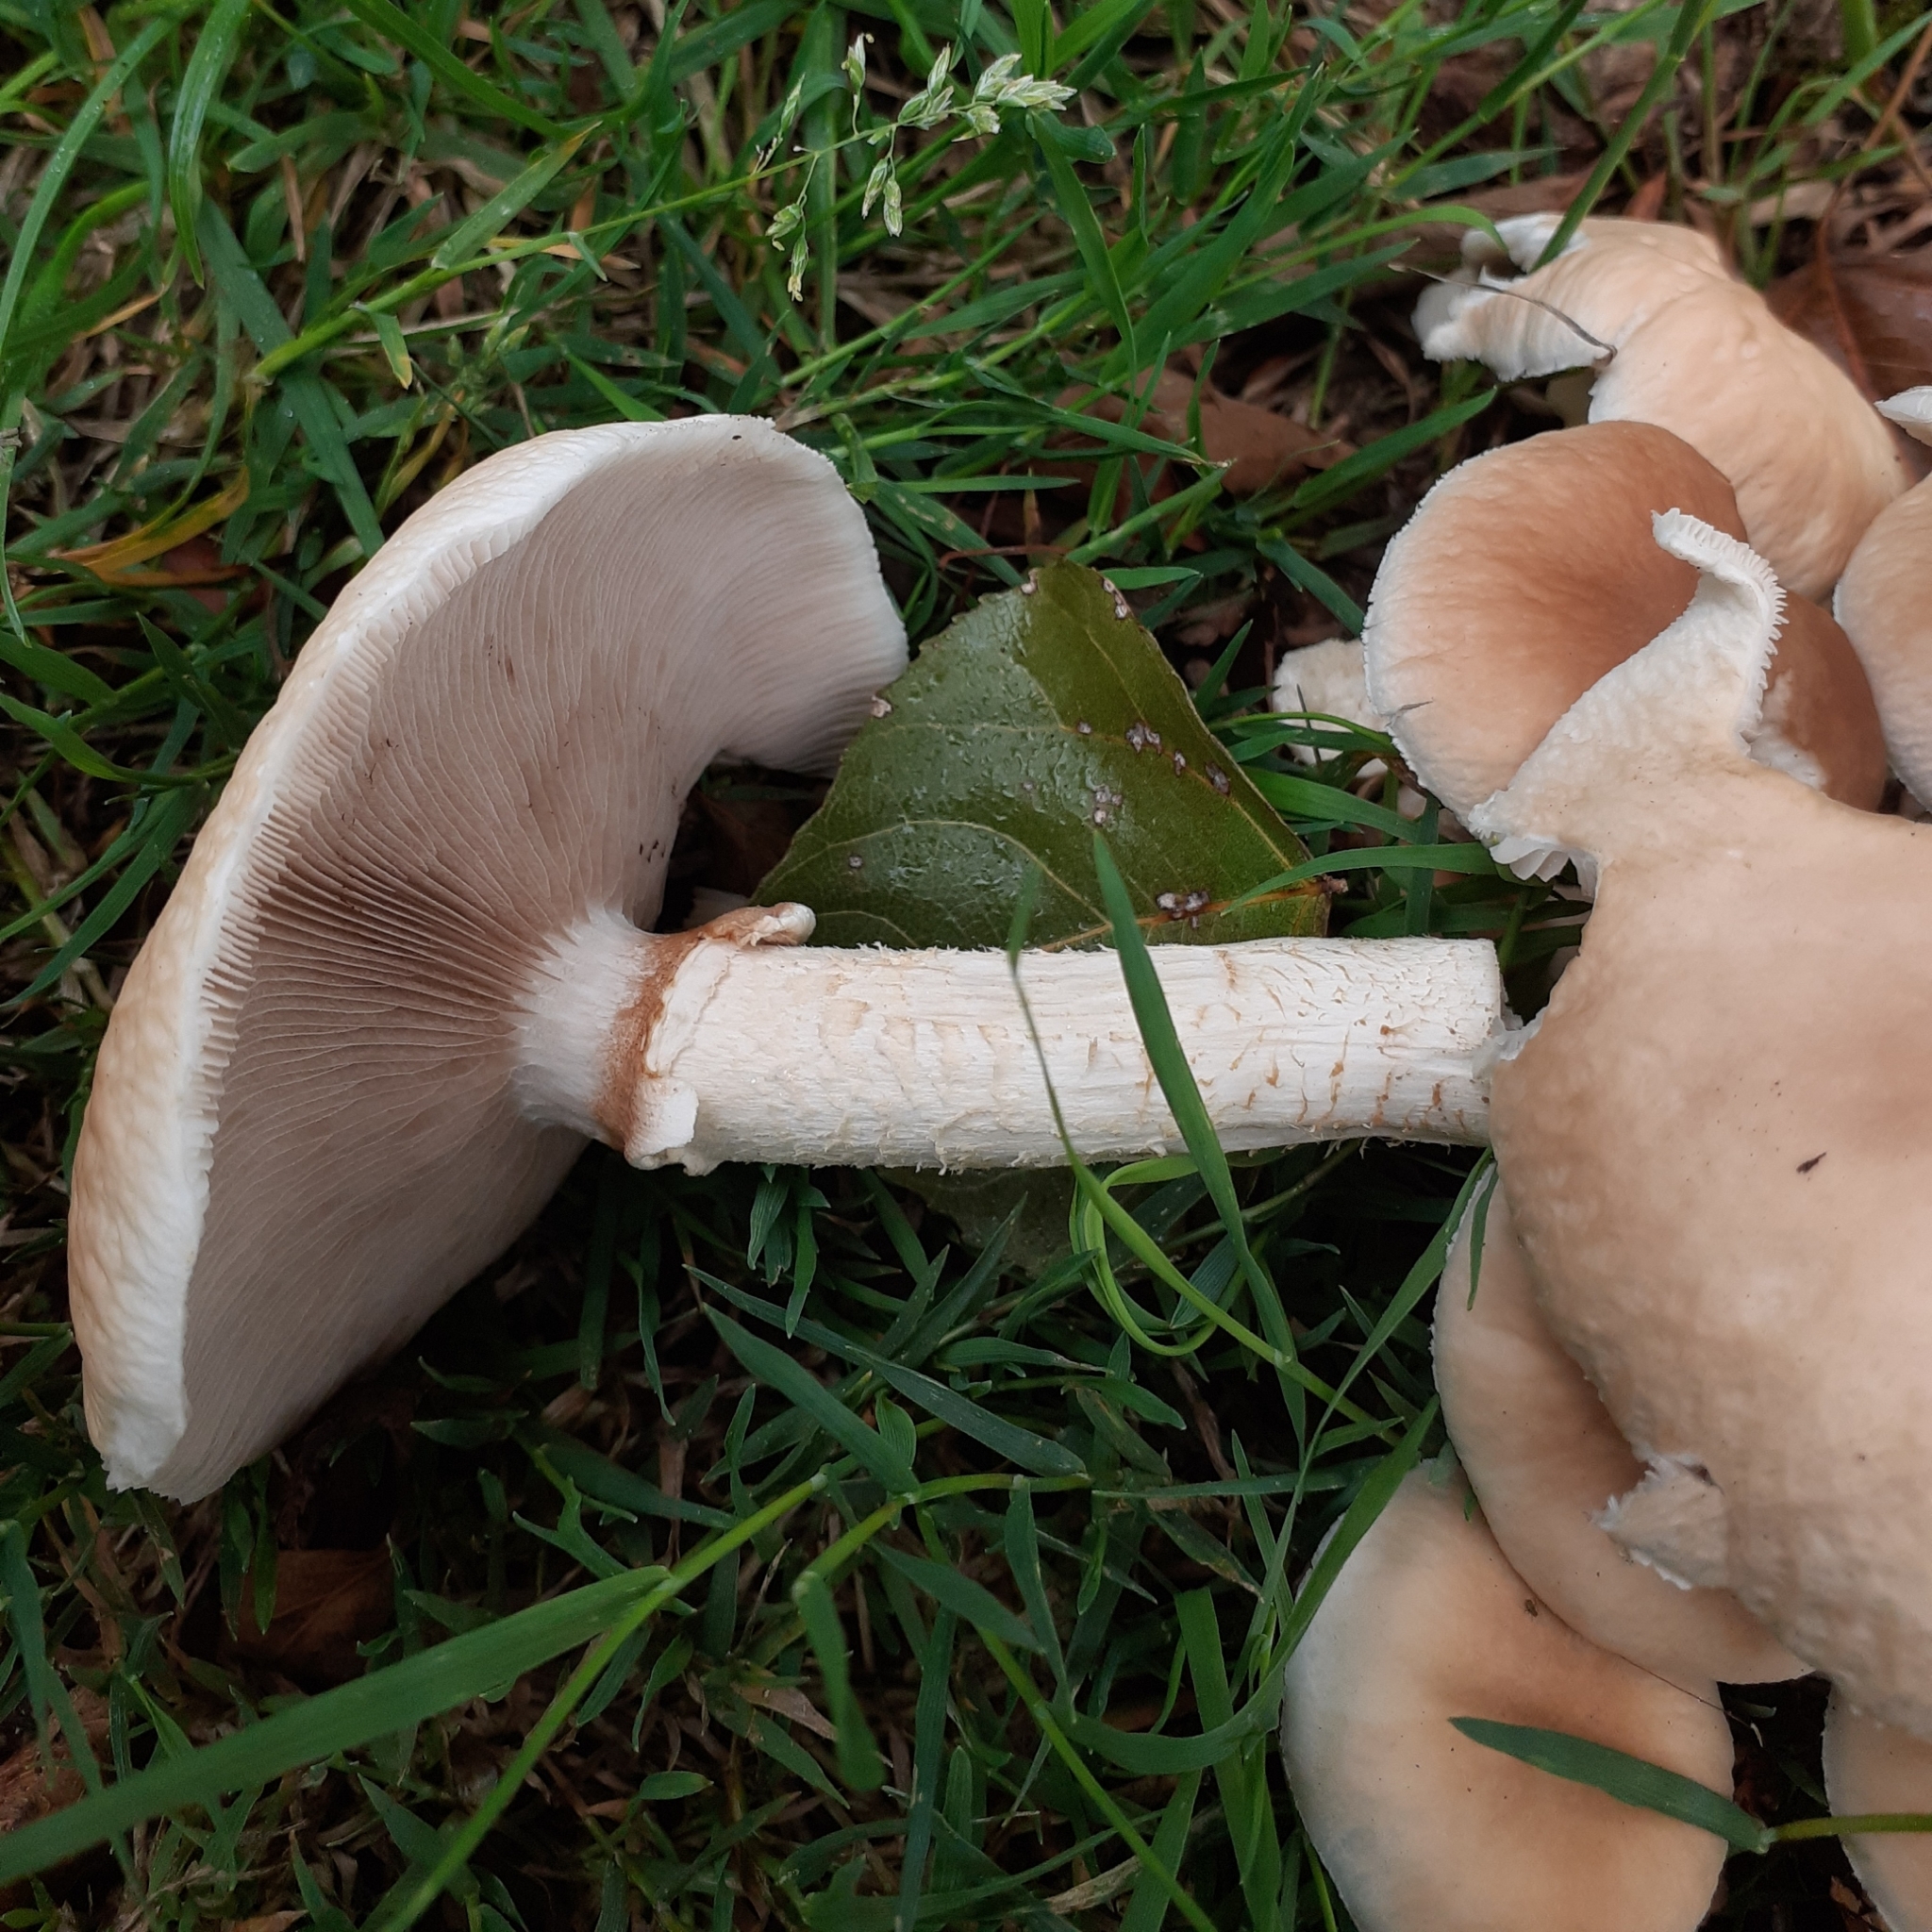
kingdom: Fungi
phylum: Basidiomycota
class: Agaricomycetes
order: Agaricales
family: Tubariaceae
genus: Cyclocybe
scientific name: Cyclocybe cylindracea
